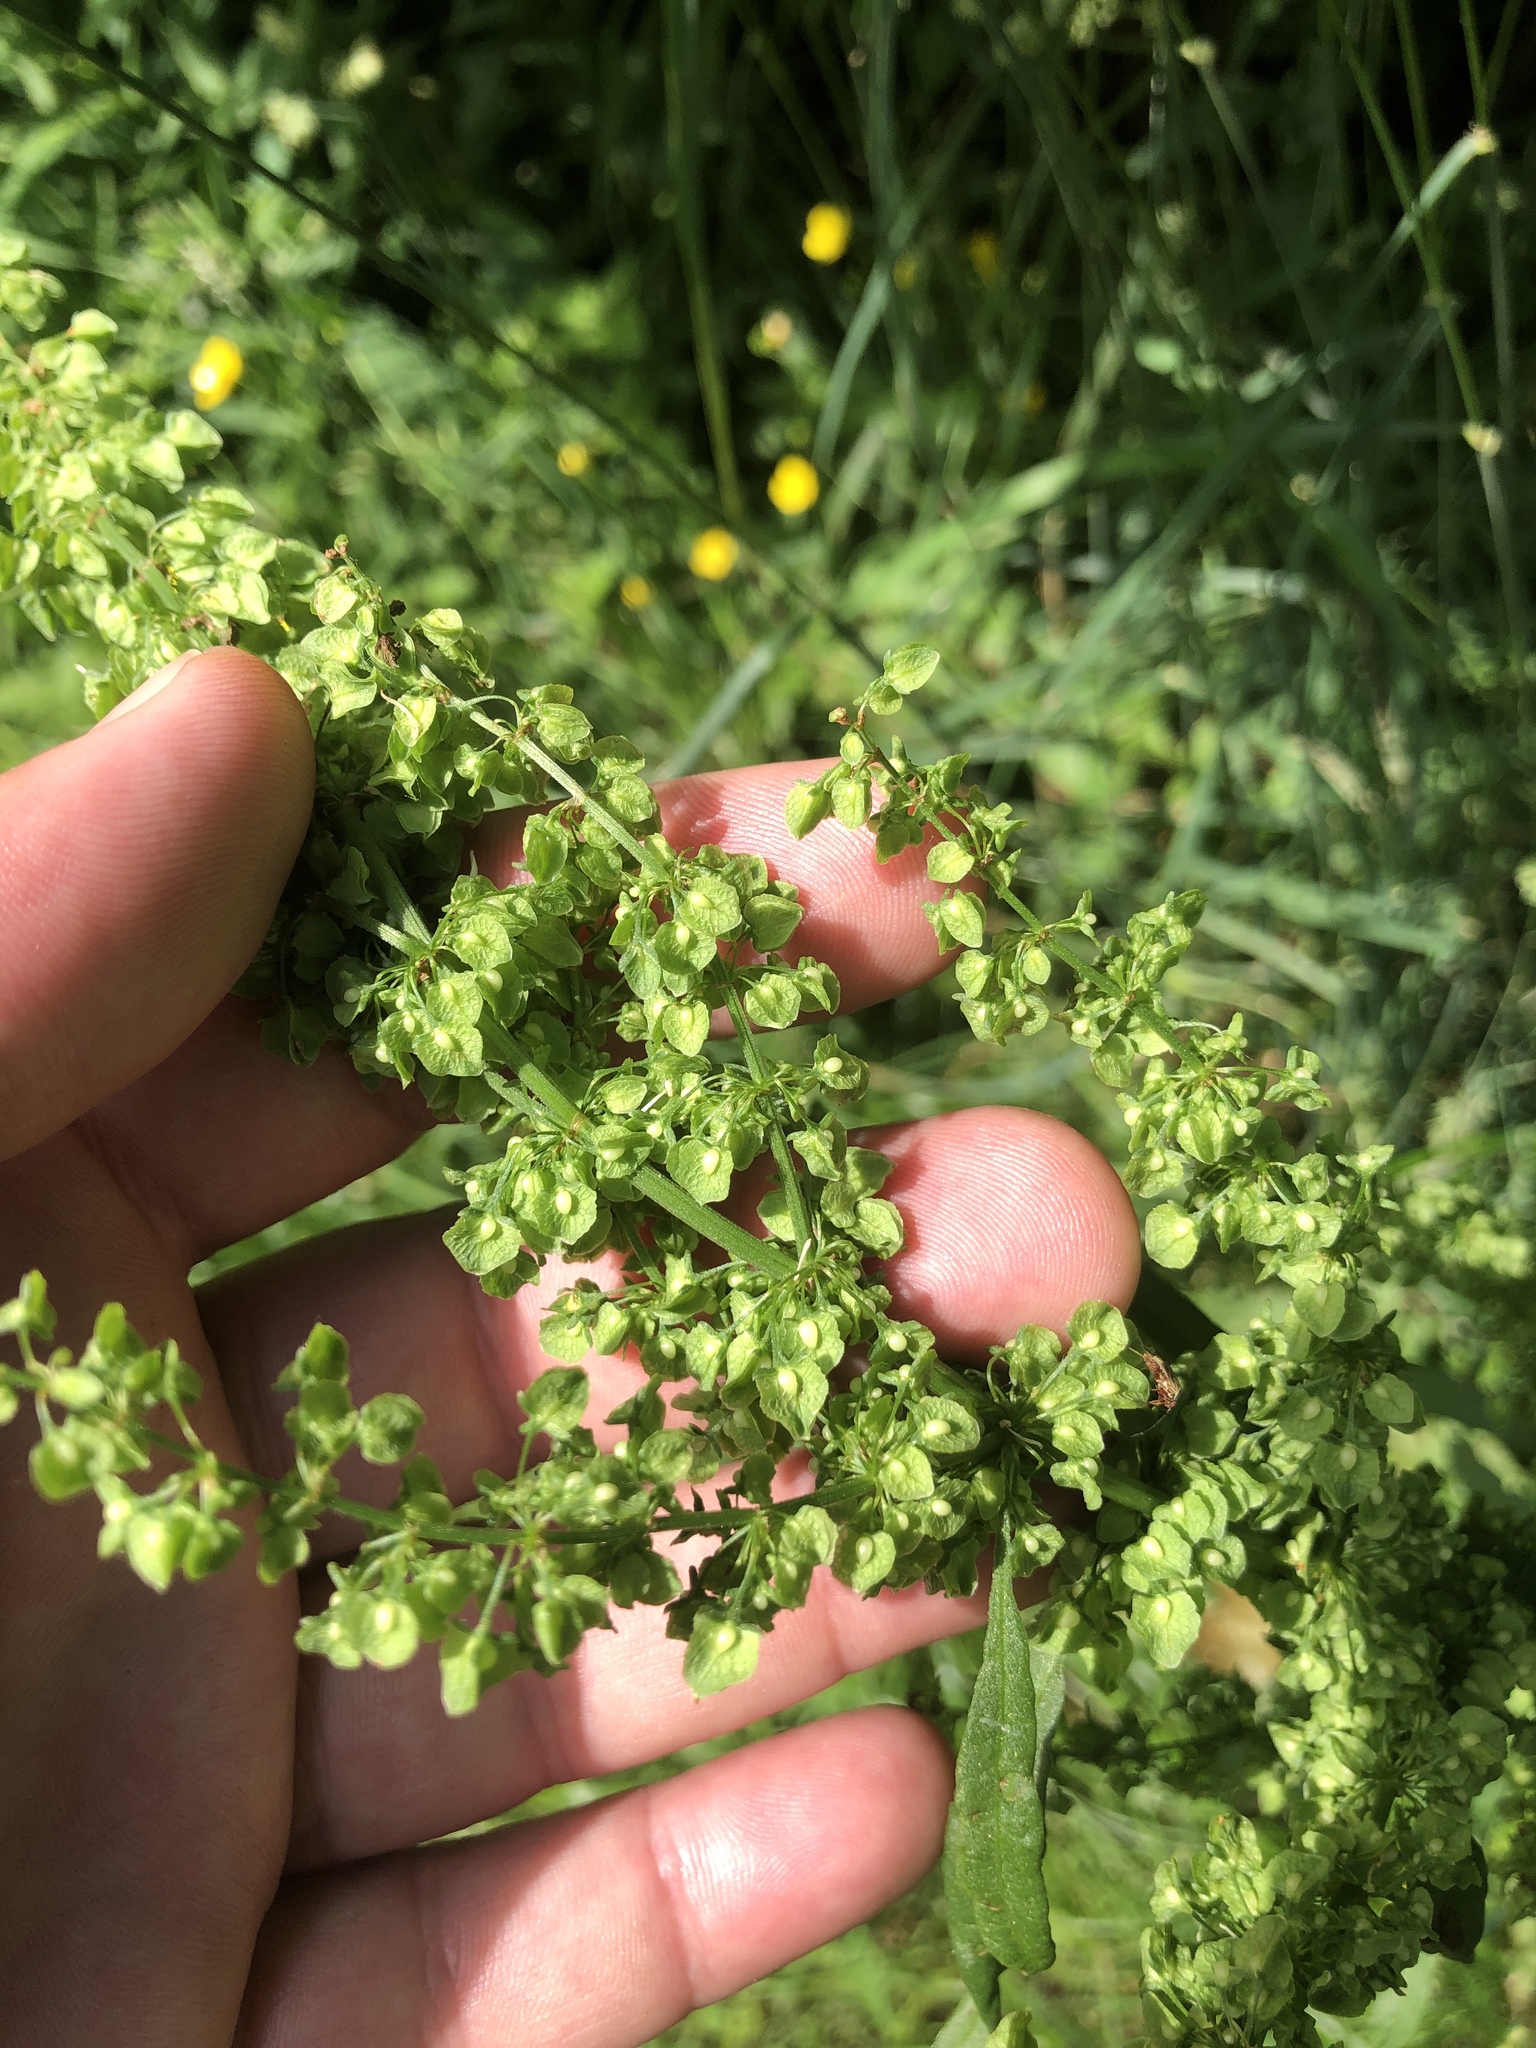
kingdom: Plantae
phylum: Tracheophyta
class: Magnoliopsida
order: Caryophyllales
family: Polygonaceae
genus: Rumex
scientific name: Rumex crispus
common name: Curled dock
